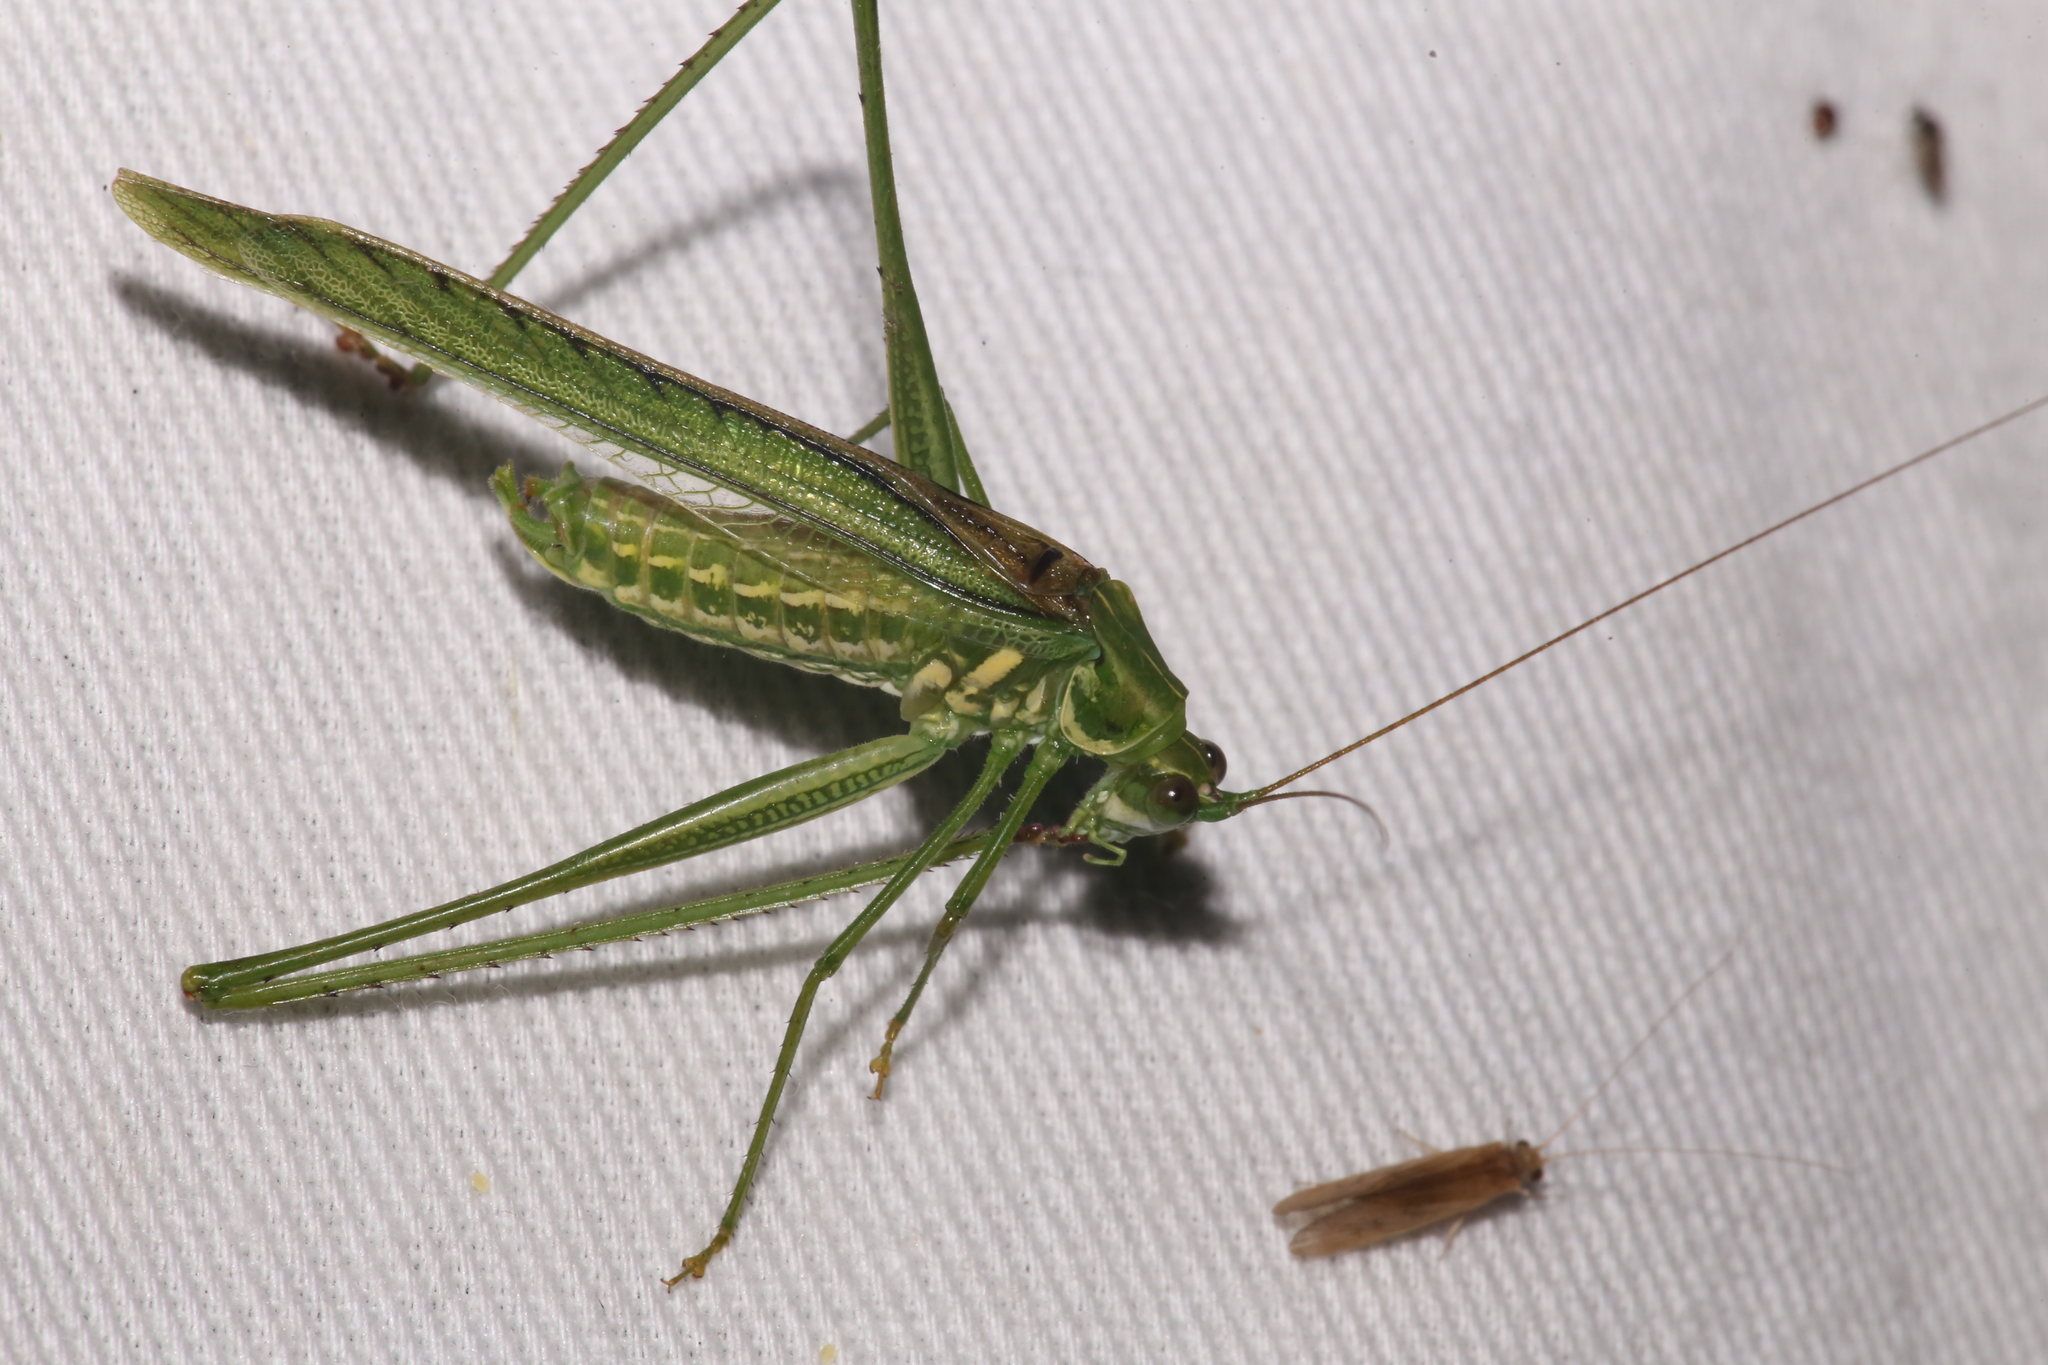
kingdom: Animalia
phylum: Arthropoda
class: Insecta
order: Orthoptera
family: Tettigoniidae
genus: Inscudderia
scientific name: Inscudderia taxodii
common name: Western cypress katydid
